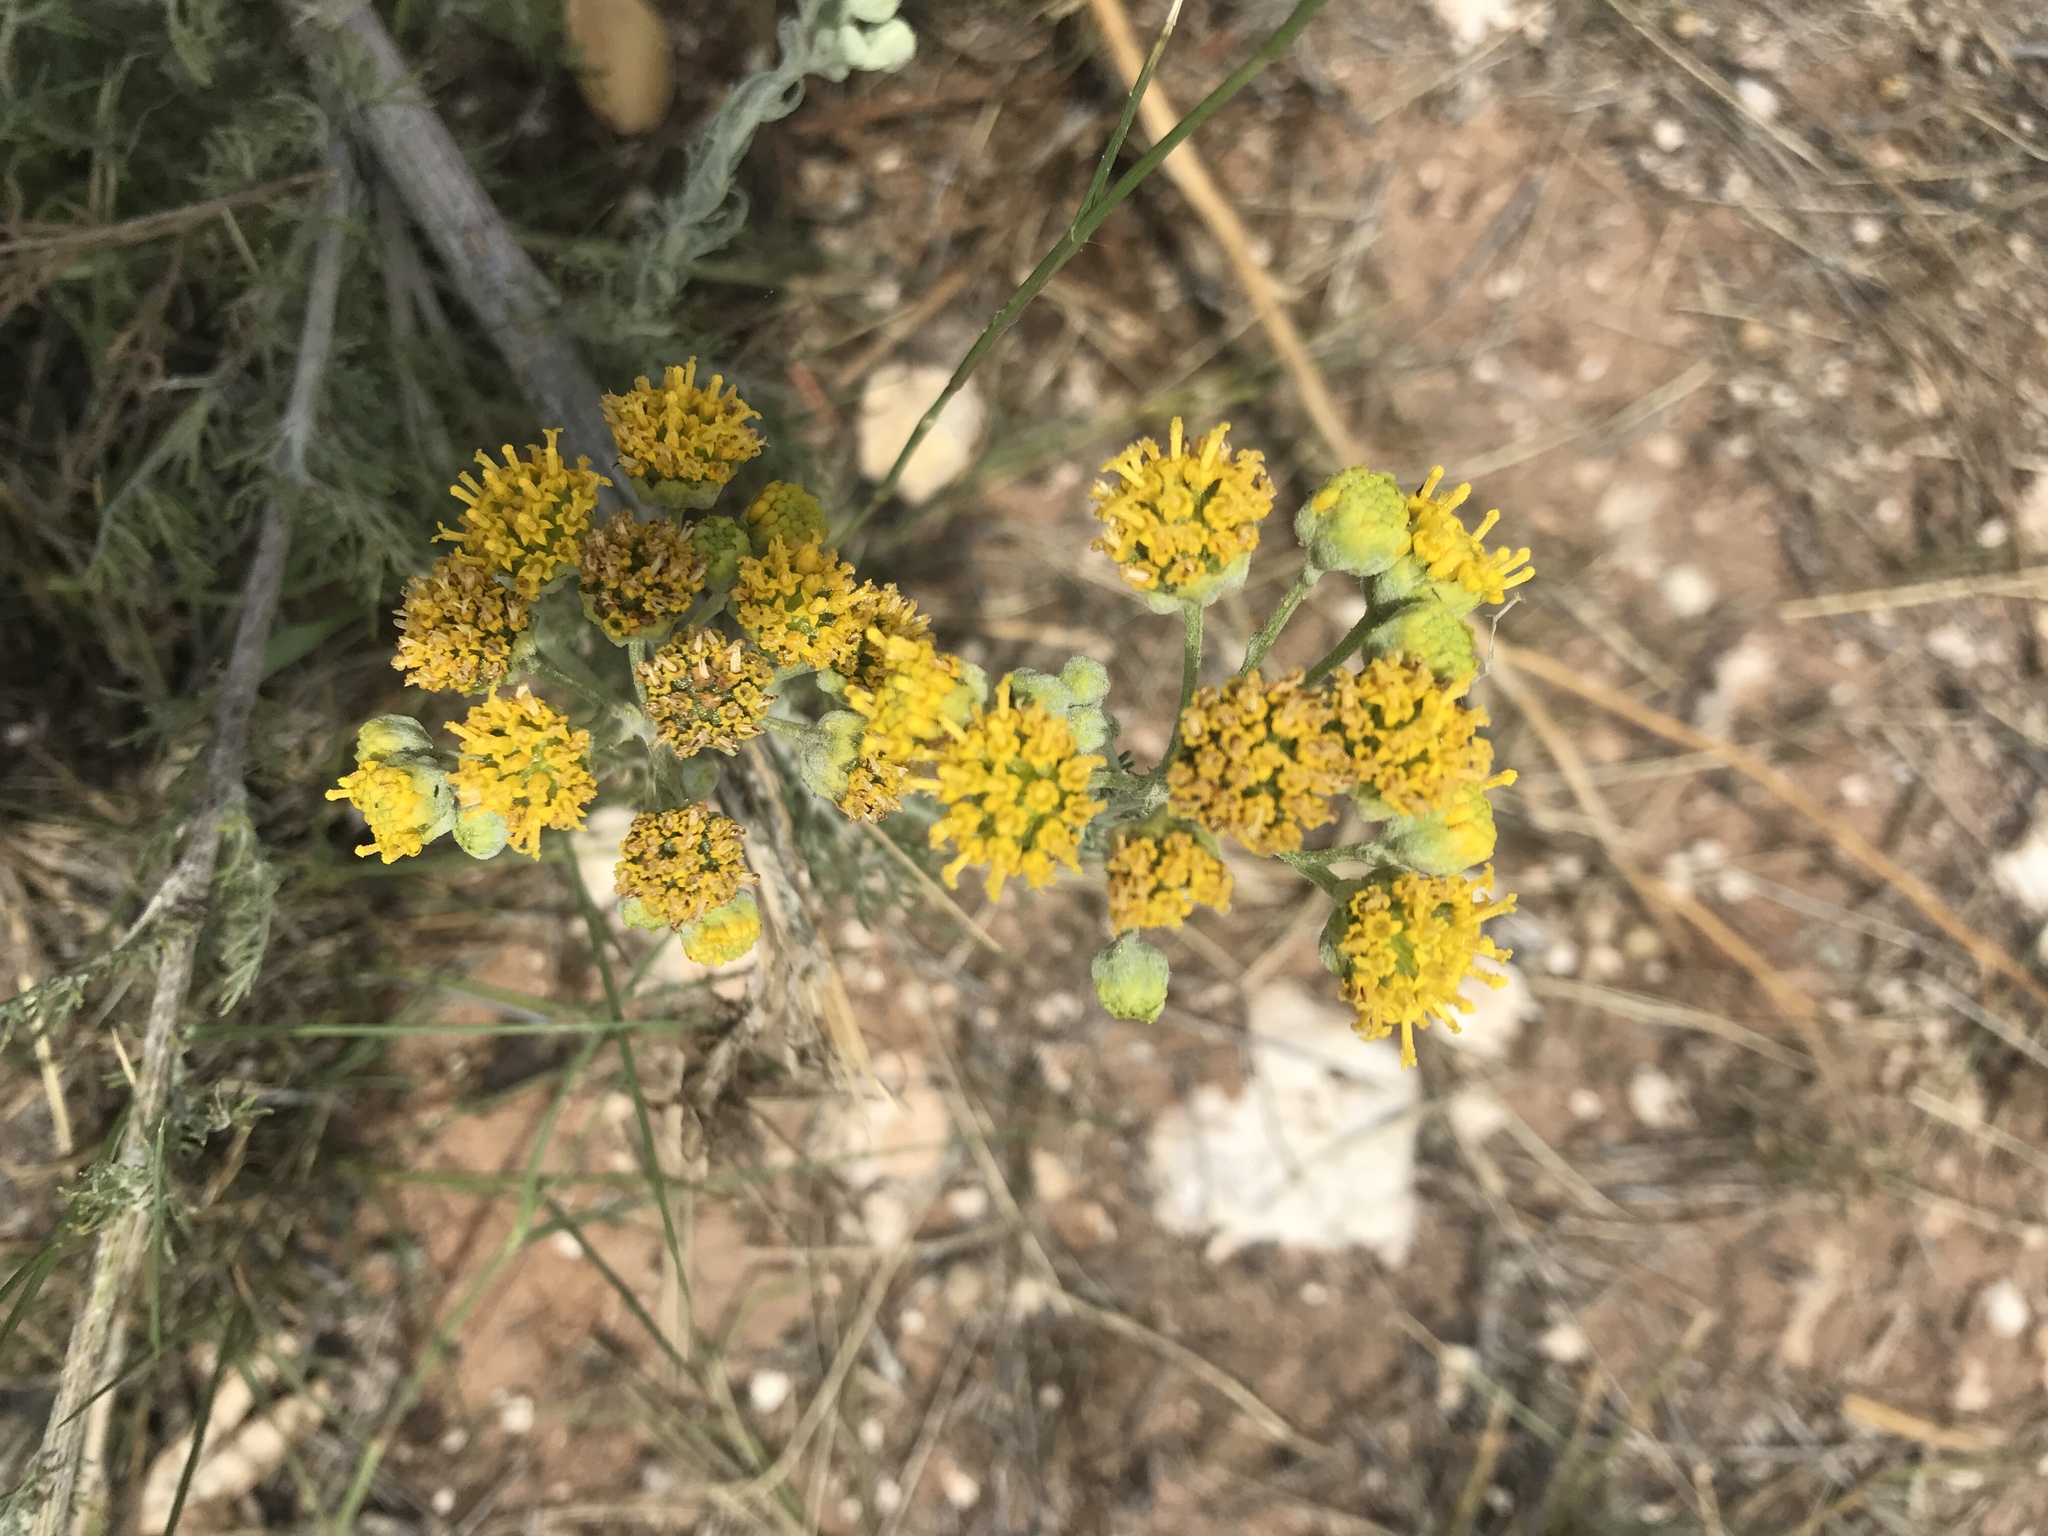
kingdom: Plantae
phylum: Tracheophyta
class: Magnoliopsida
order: Asterales
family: Asteraceae
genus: Hymenopappus
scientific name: Hymenopappus flavescens
